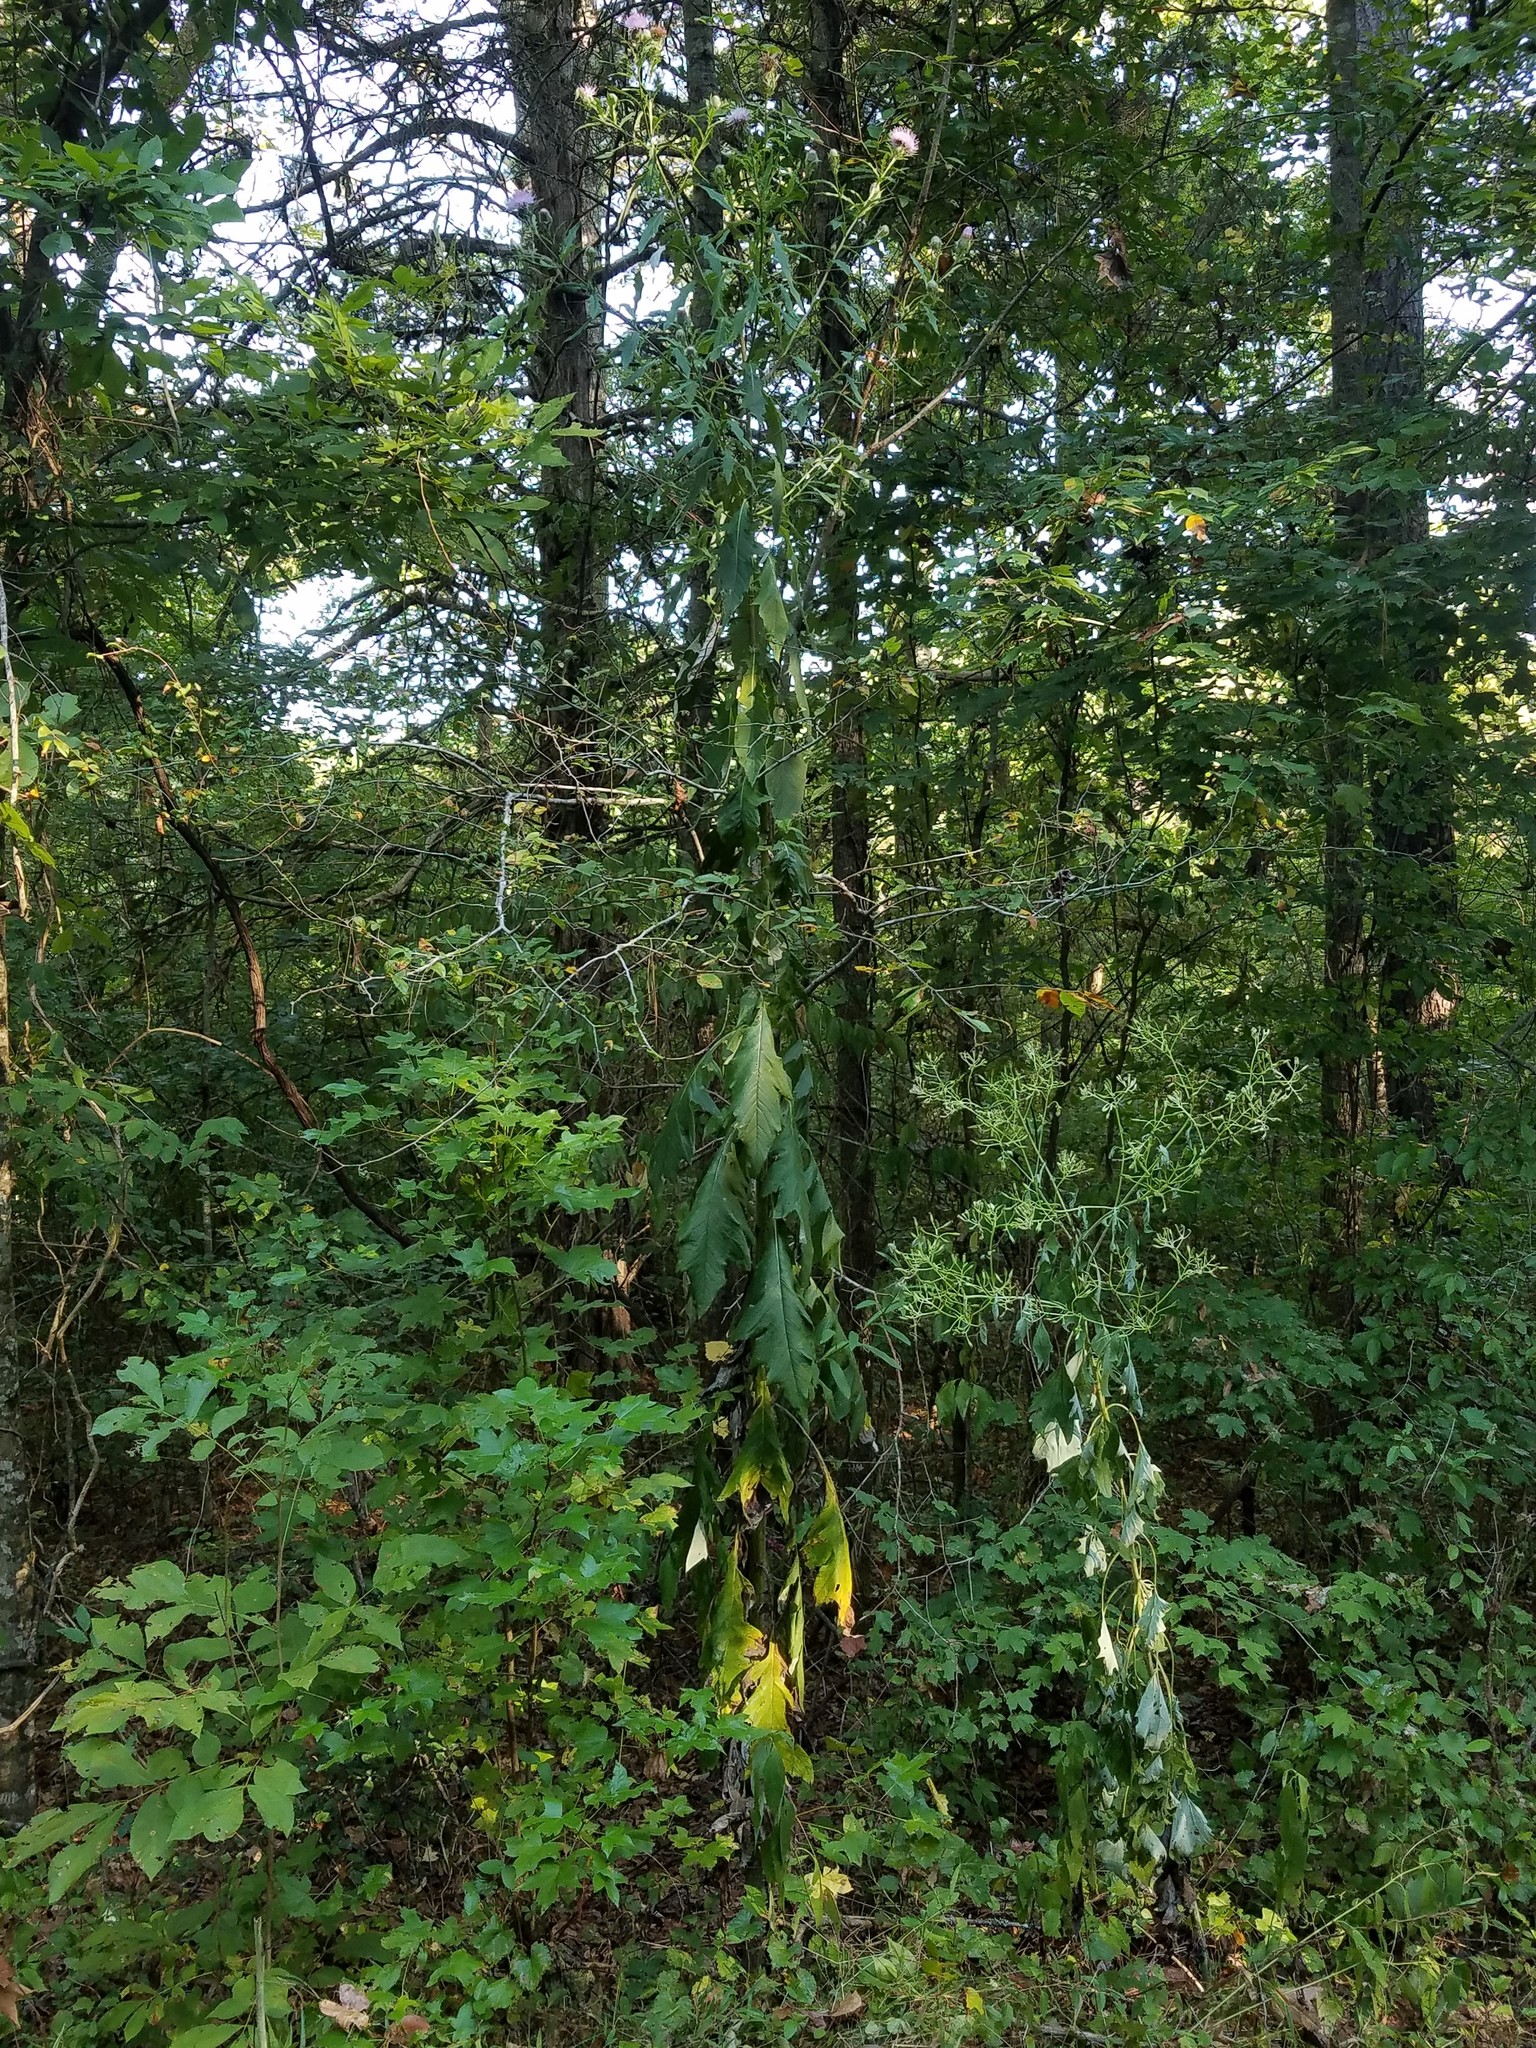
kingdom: Plantae
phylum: Tracheophyta
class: Magnoliopsida
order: Asterales
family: Asteraceae
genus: Cirsium
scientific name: Cirsium altissimum
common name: Roadside thistle
